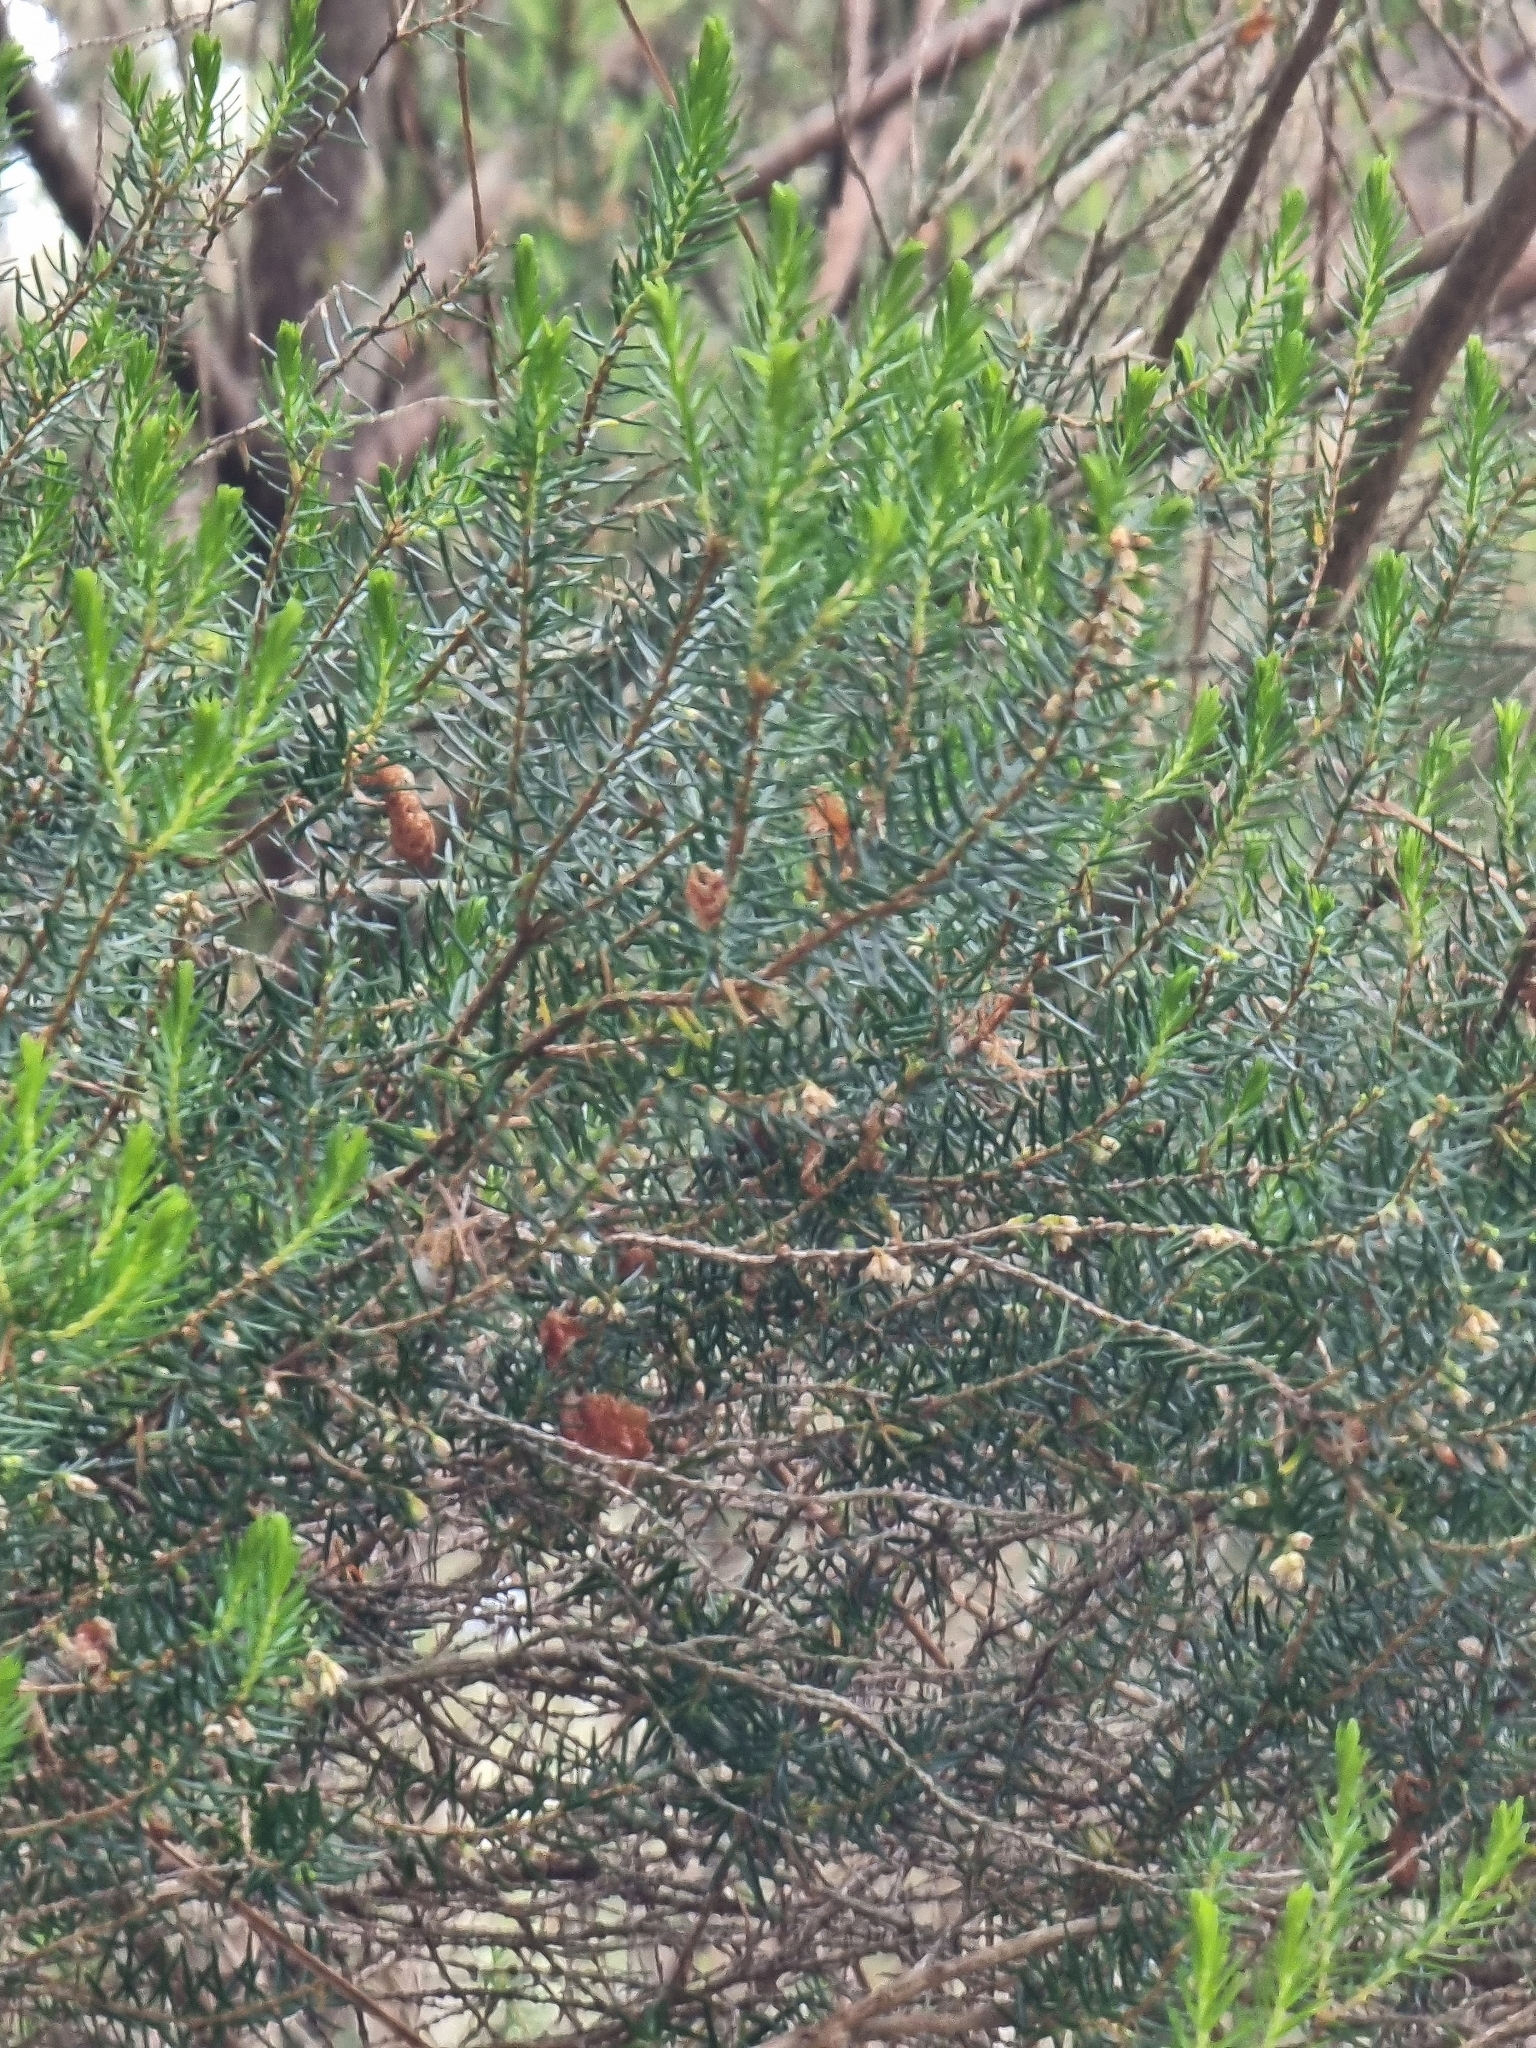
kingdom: Plantae
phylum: Tracheophyta
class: Magnoliopsida
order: Ericales
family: Ericaceae
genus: Erica
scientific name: Erica platycodon
